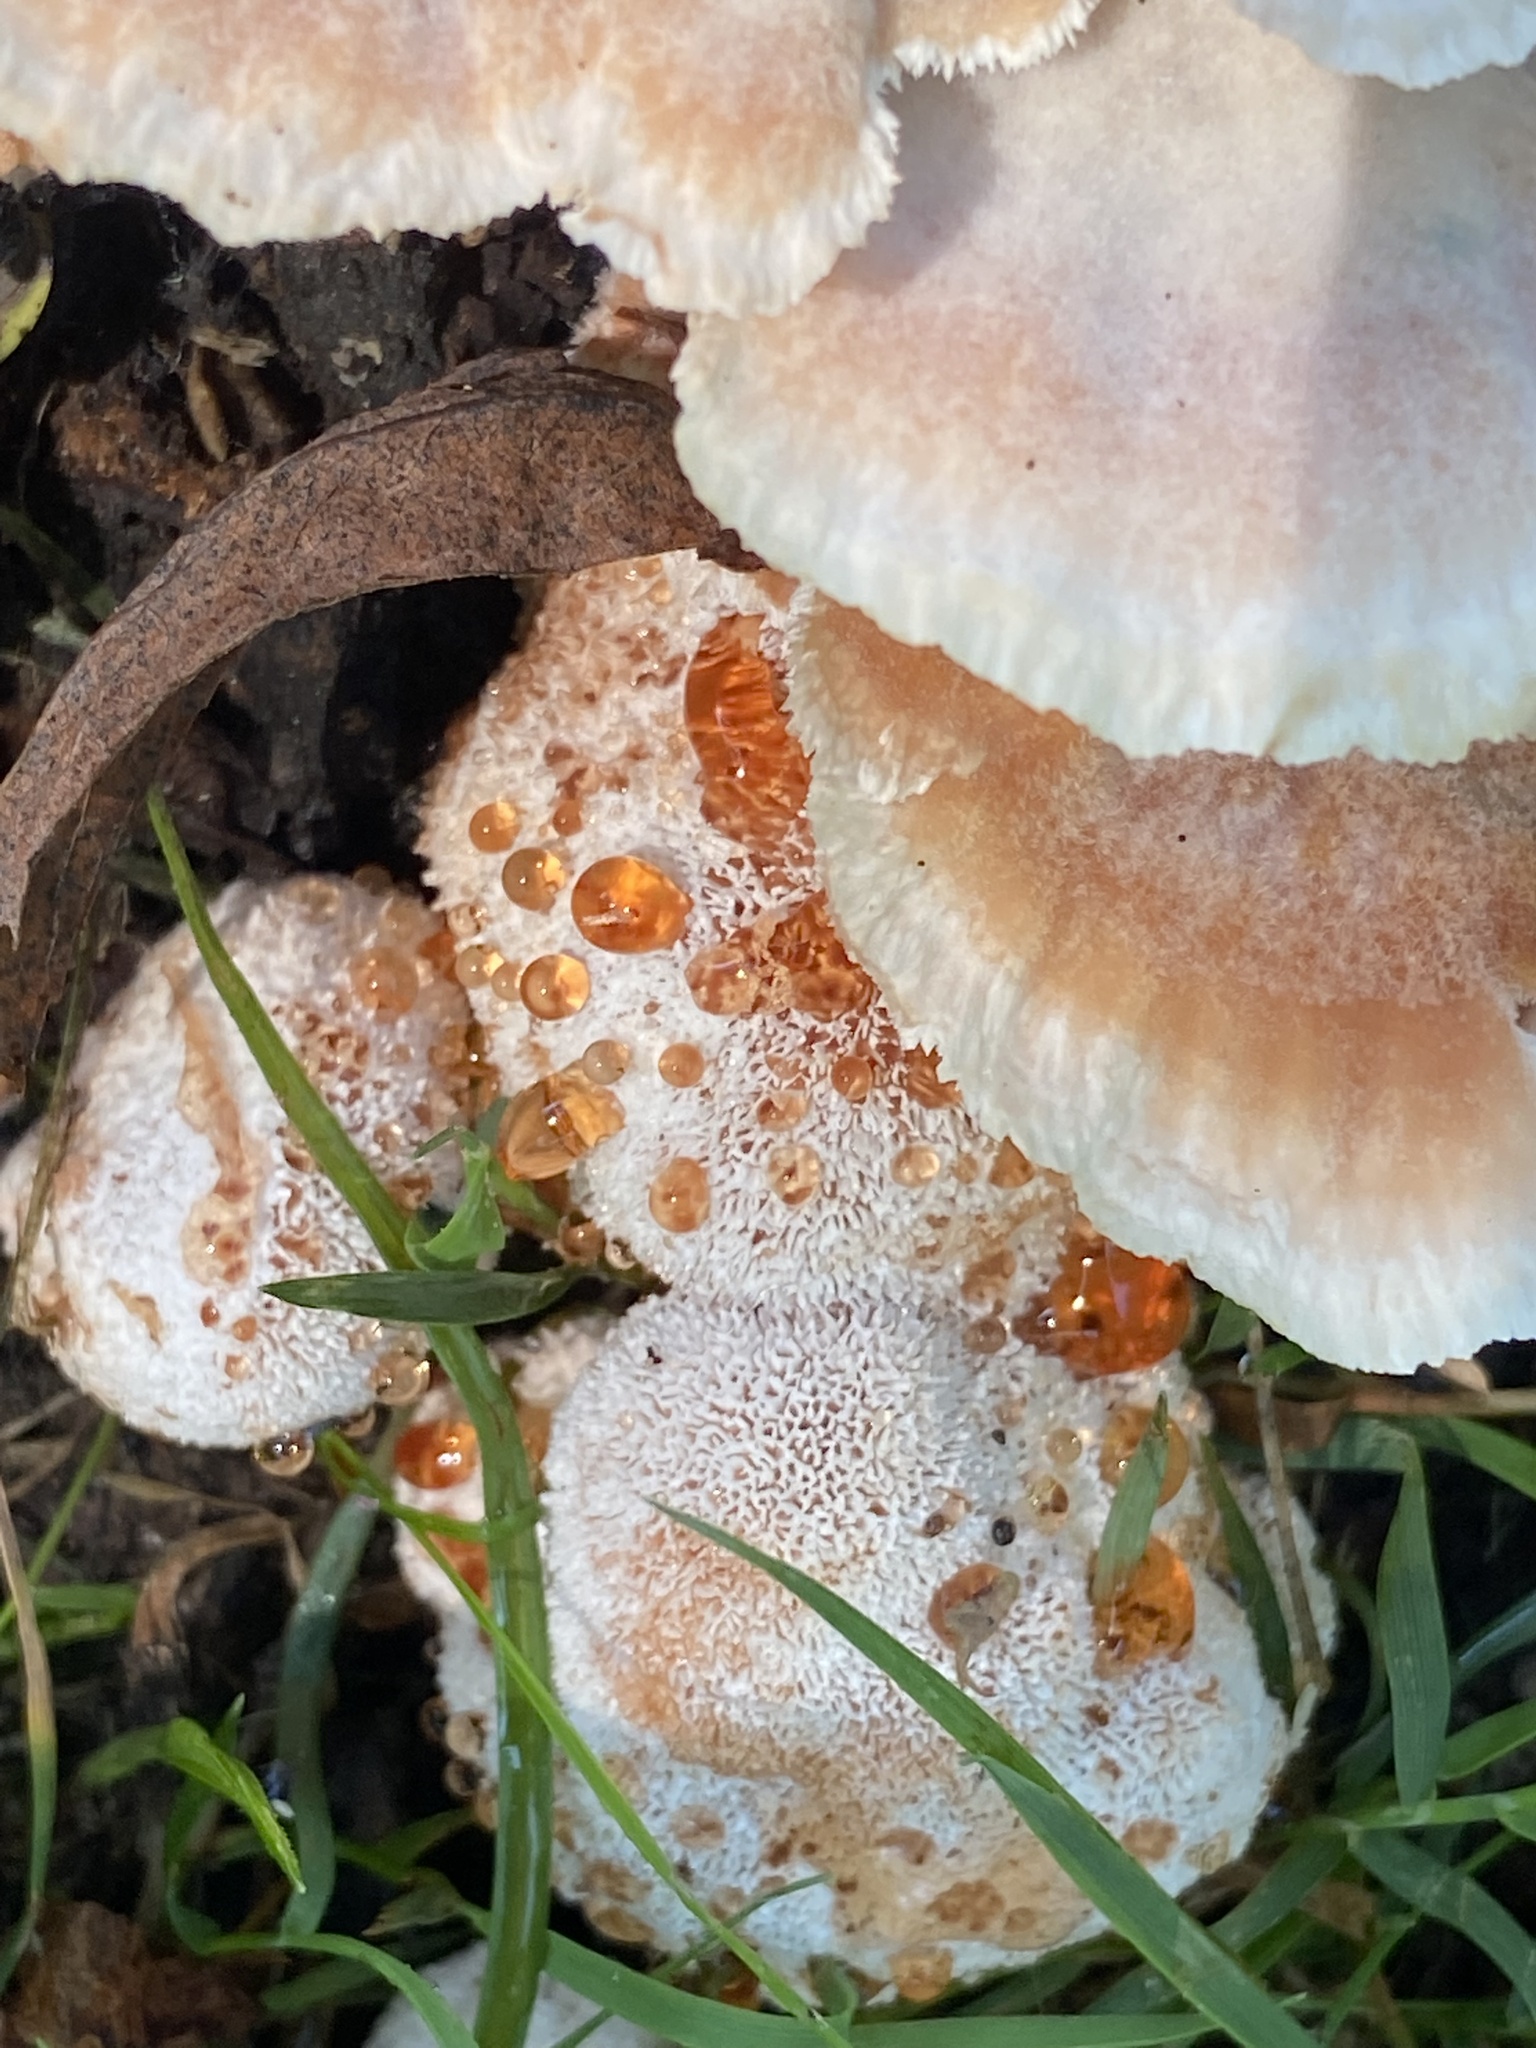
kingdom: Fungi
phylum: Basidiomycota
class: Agaricomycetes
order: Polyporales
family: Podoscyphaceae
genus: Abortiporus
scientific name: Abortiporus biennis
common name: Blushing rosette
